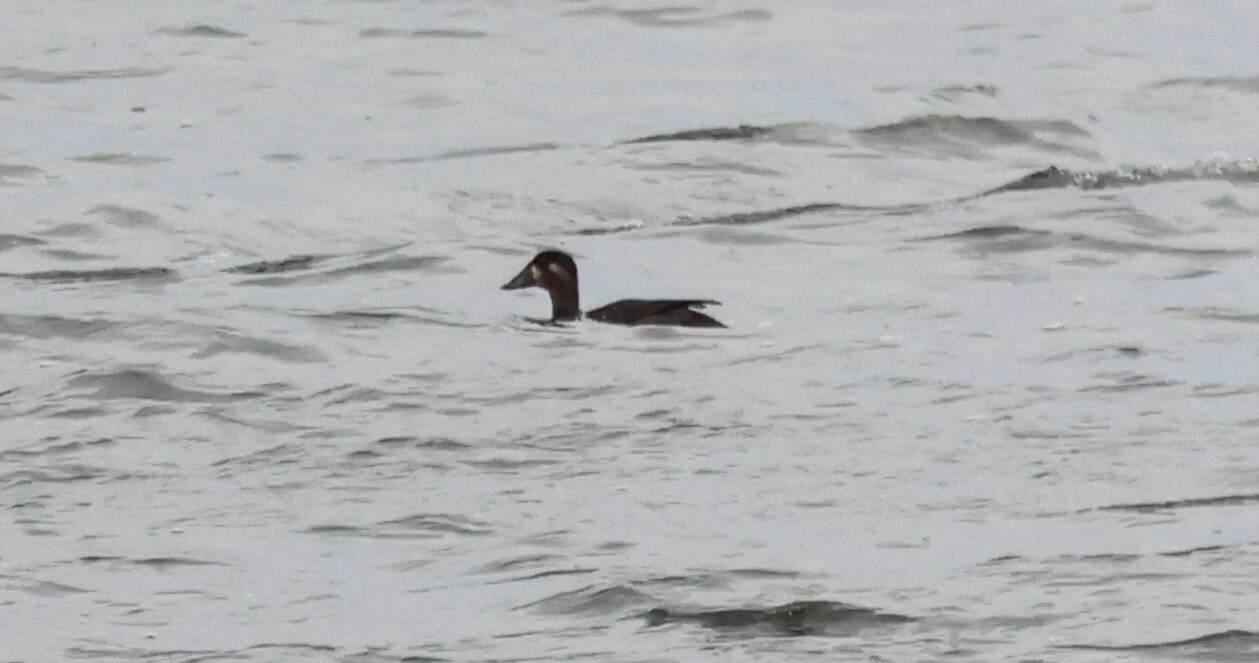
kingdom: Animalia
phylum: Chordata
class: Aves
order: Anseriformes
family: Anatidae
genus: Melanitta
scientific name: Melanitta perspicillata
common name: Surf scoter
